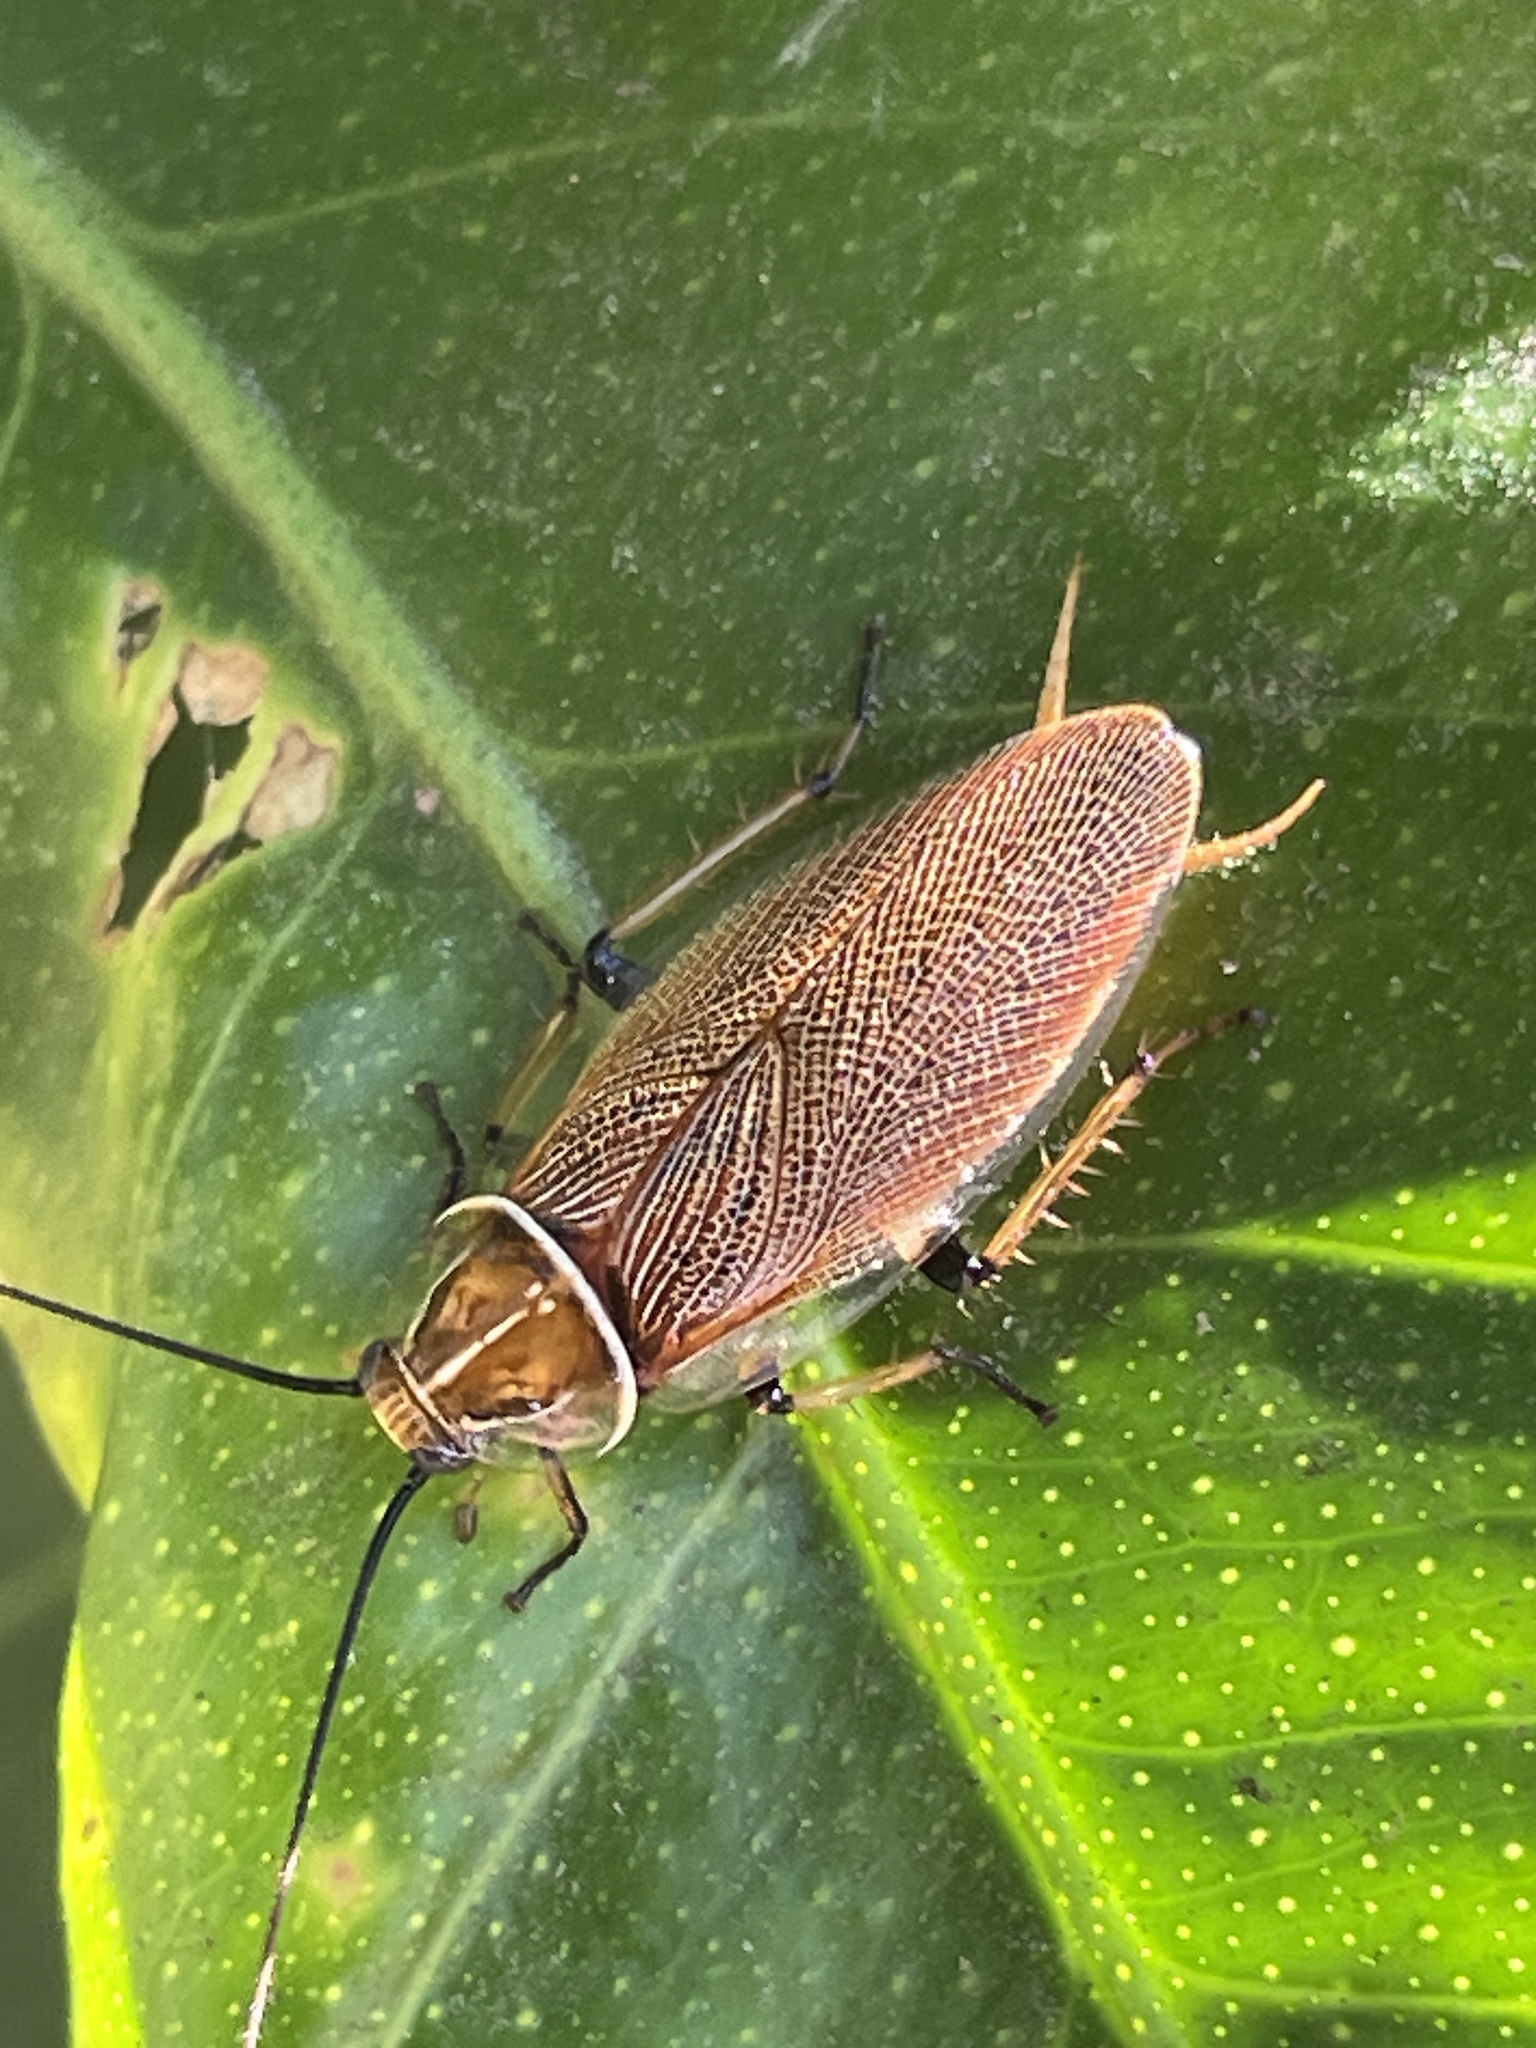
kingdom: Animalia
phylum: Arthropoda
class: Insecta
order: Blattodea
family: Ectobiidae
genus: Balta
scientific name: Balta bicolor
